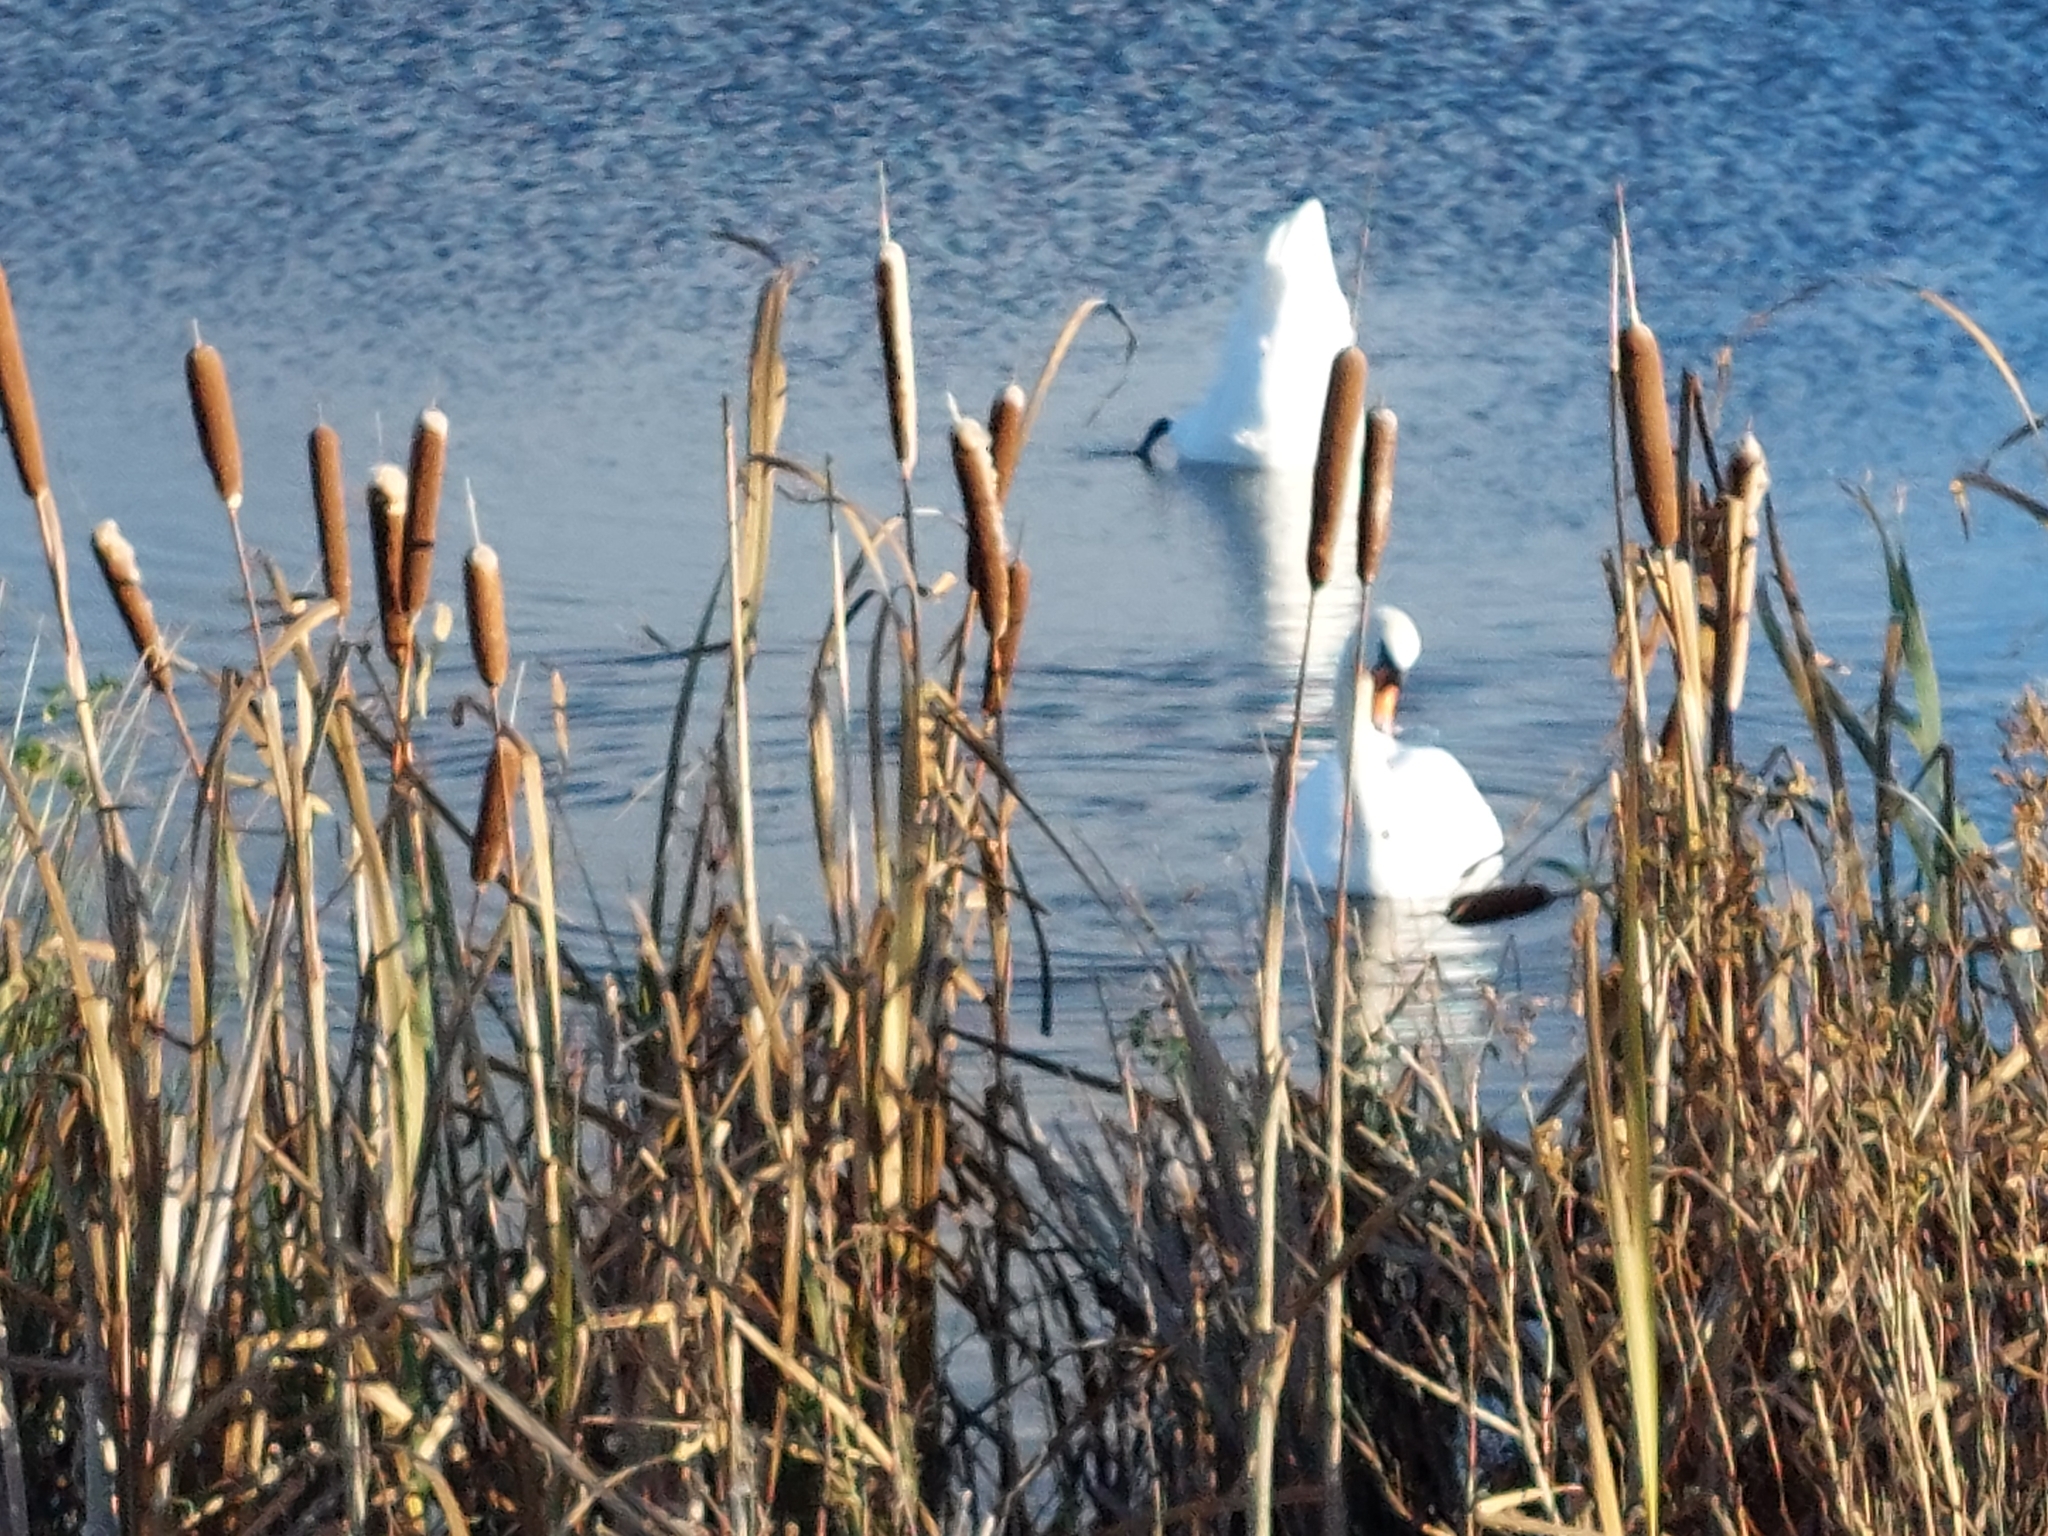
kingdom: Animalia
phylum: Chordata
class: Aves
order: Anseriformes
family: Anatidae
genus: Cygnus
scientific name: Cygnus olor
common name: Mute swan
